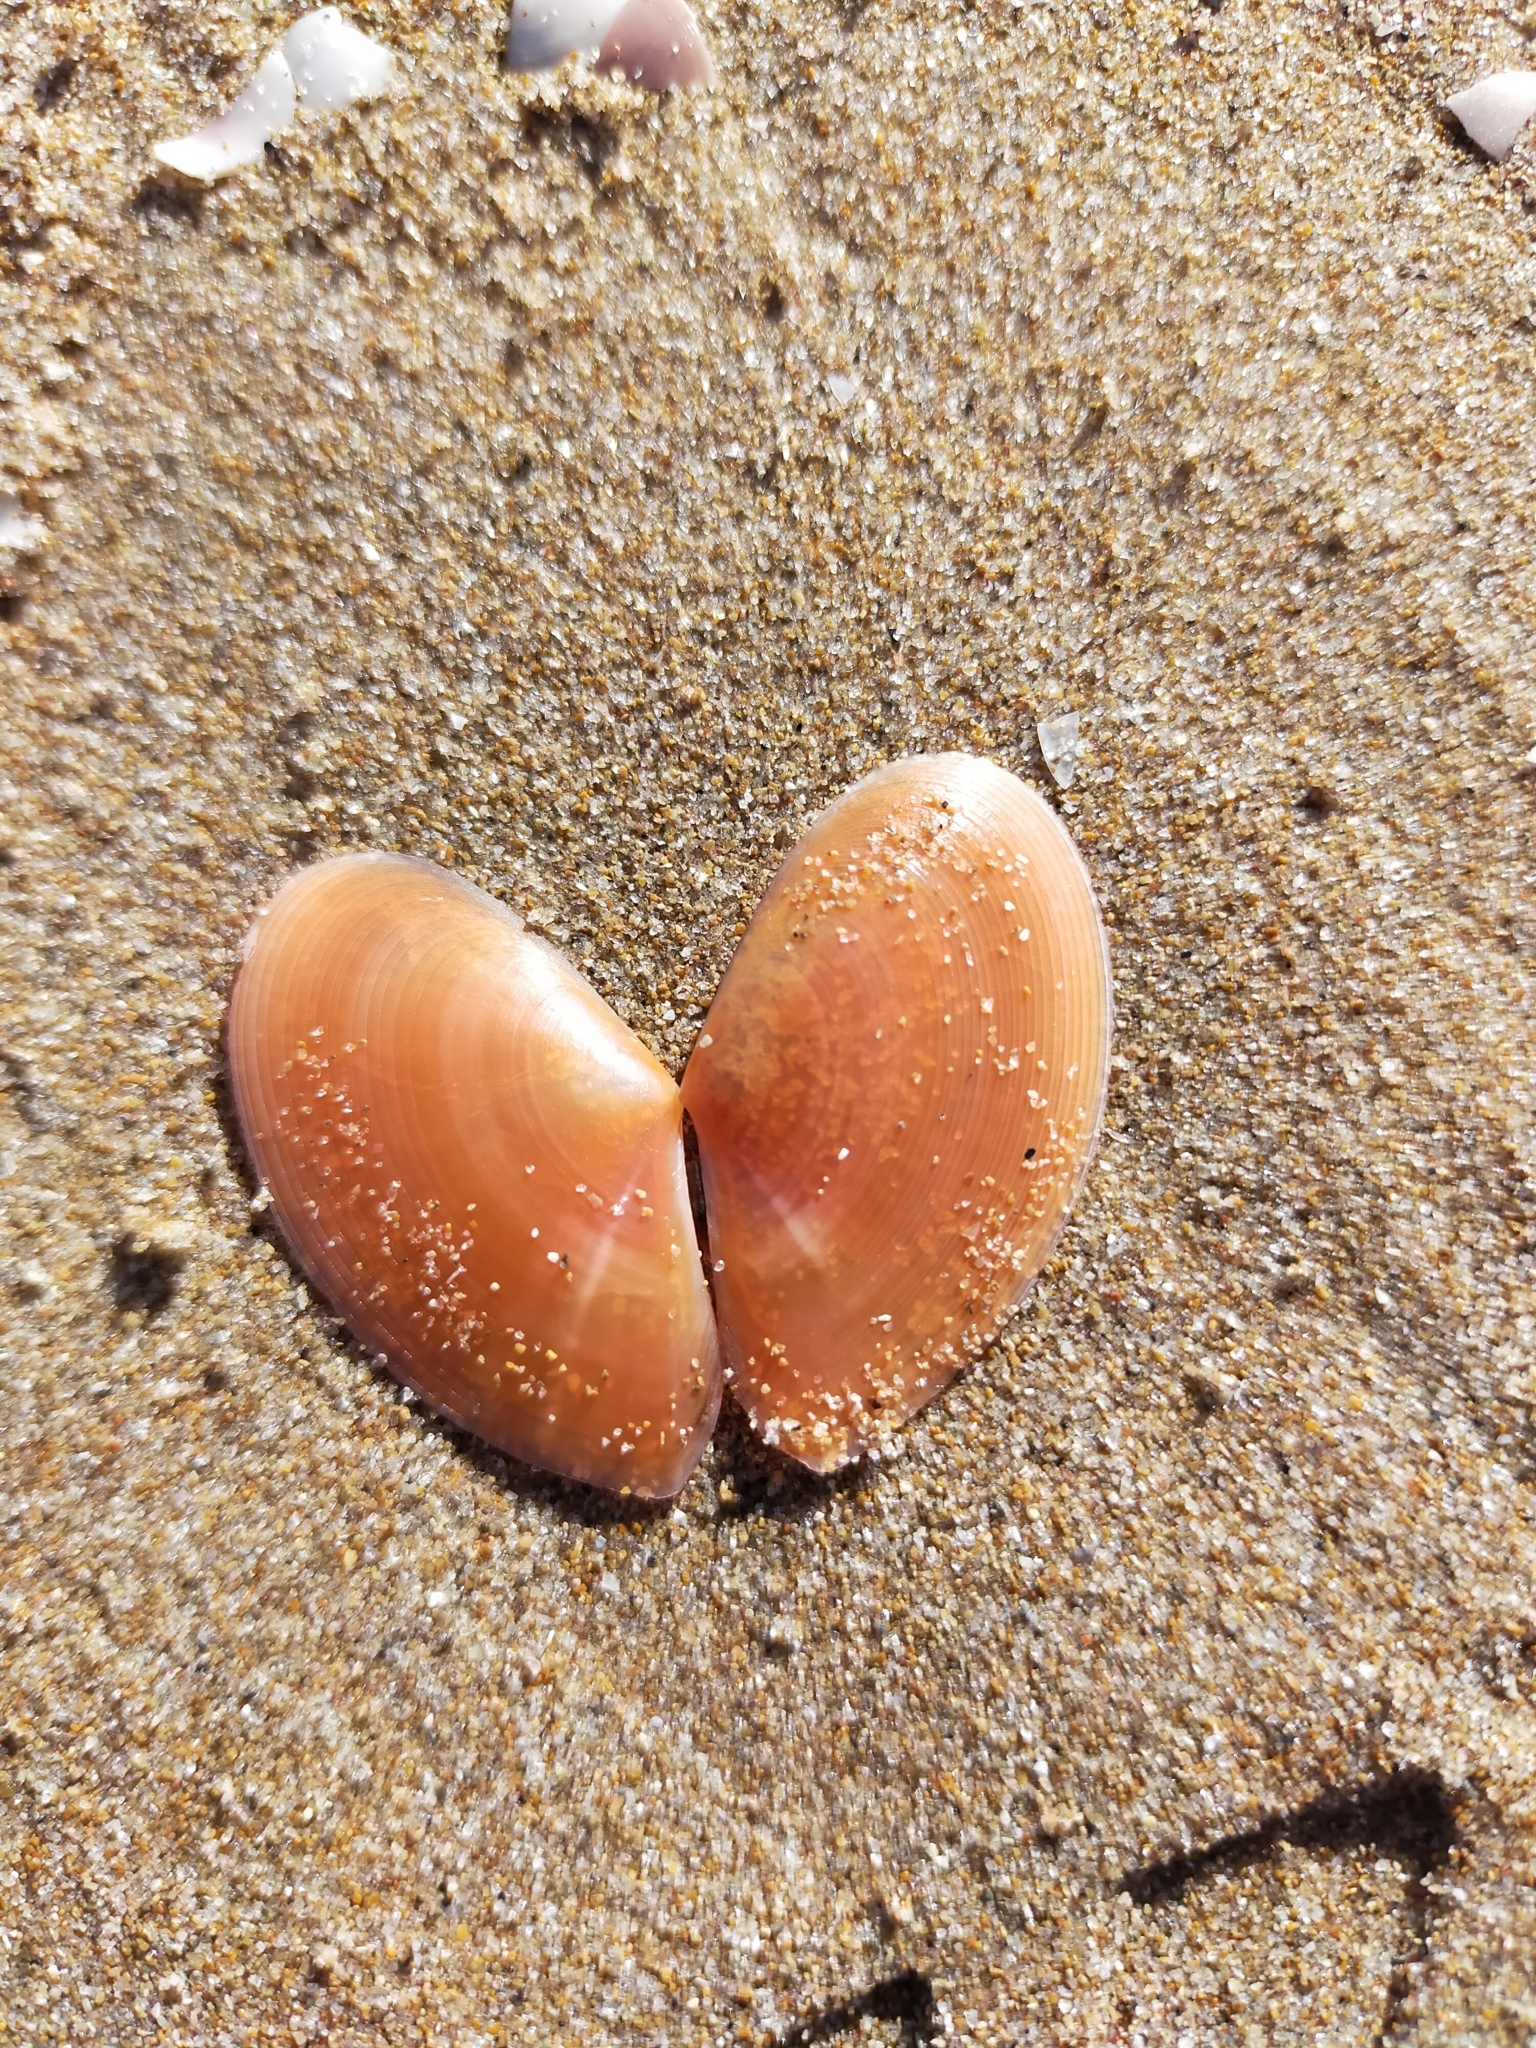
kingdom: Animalia
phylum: Mollusca
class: Bivalvia
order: Cardiida
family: Tellinidae
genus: Bosemprella
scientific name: Bosemprella incarnata
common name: Red tellin
